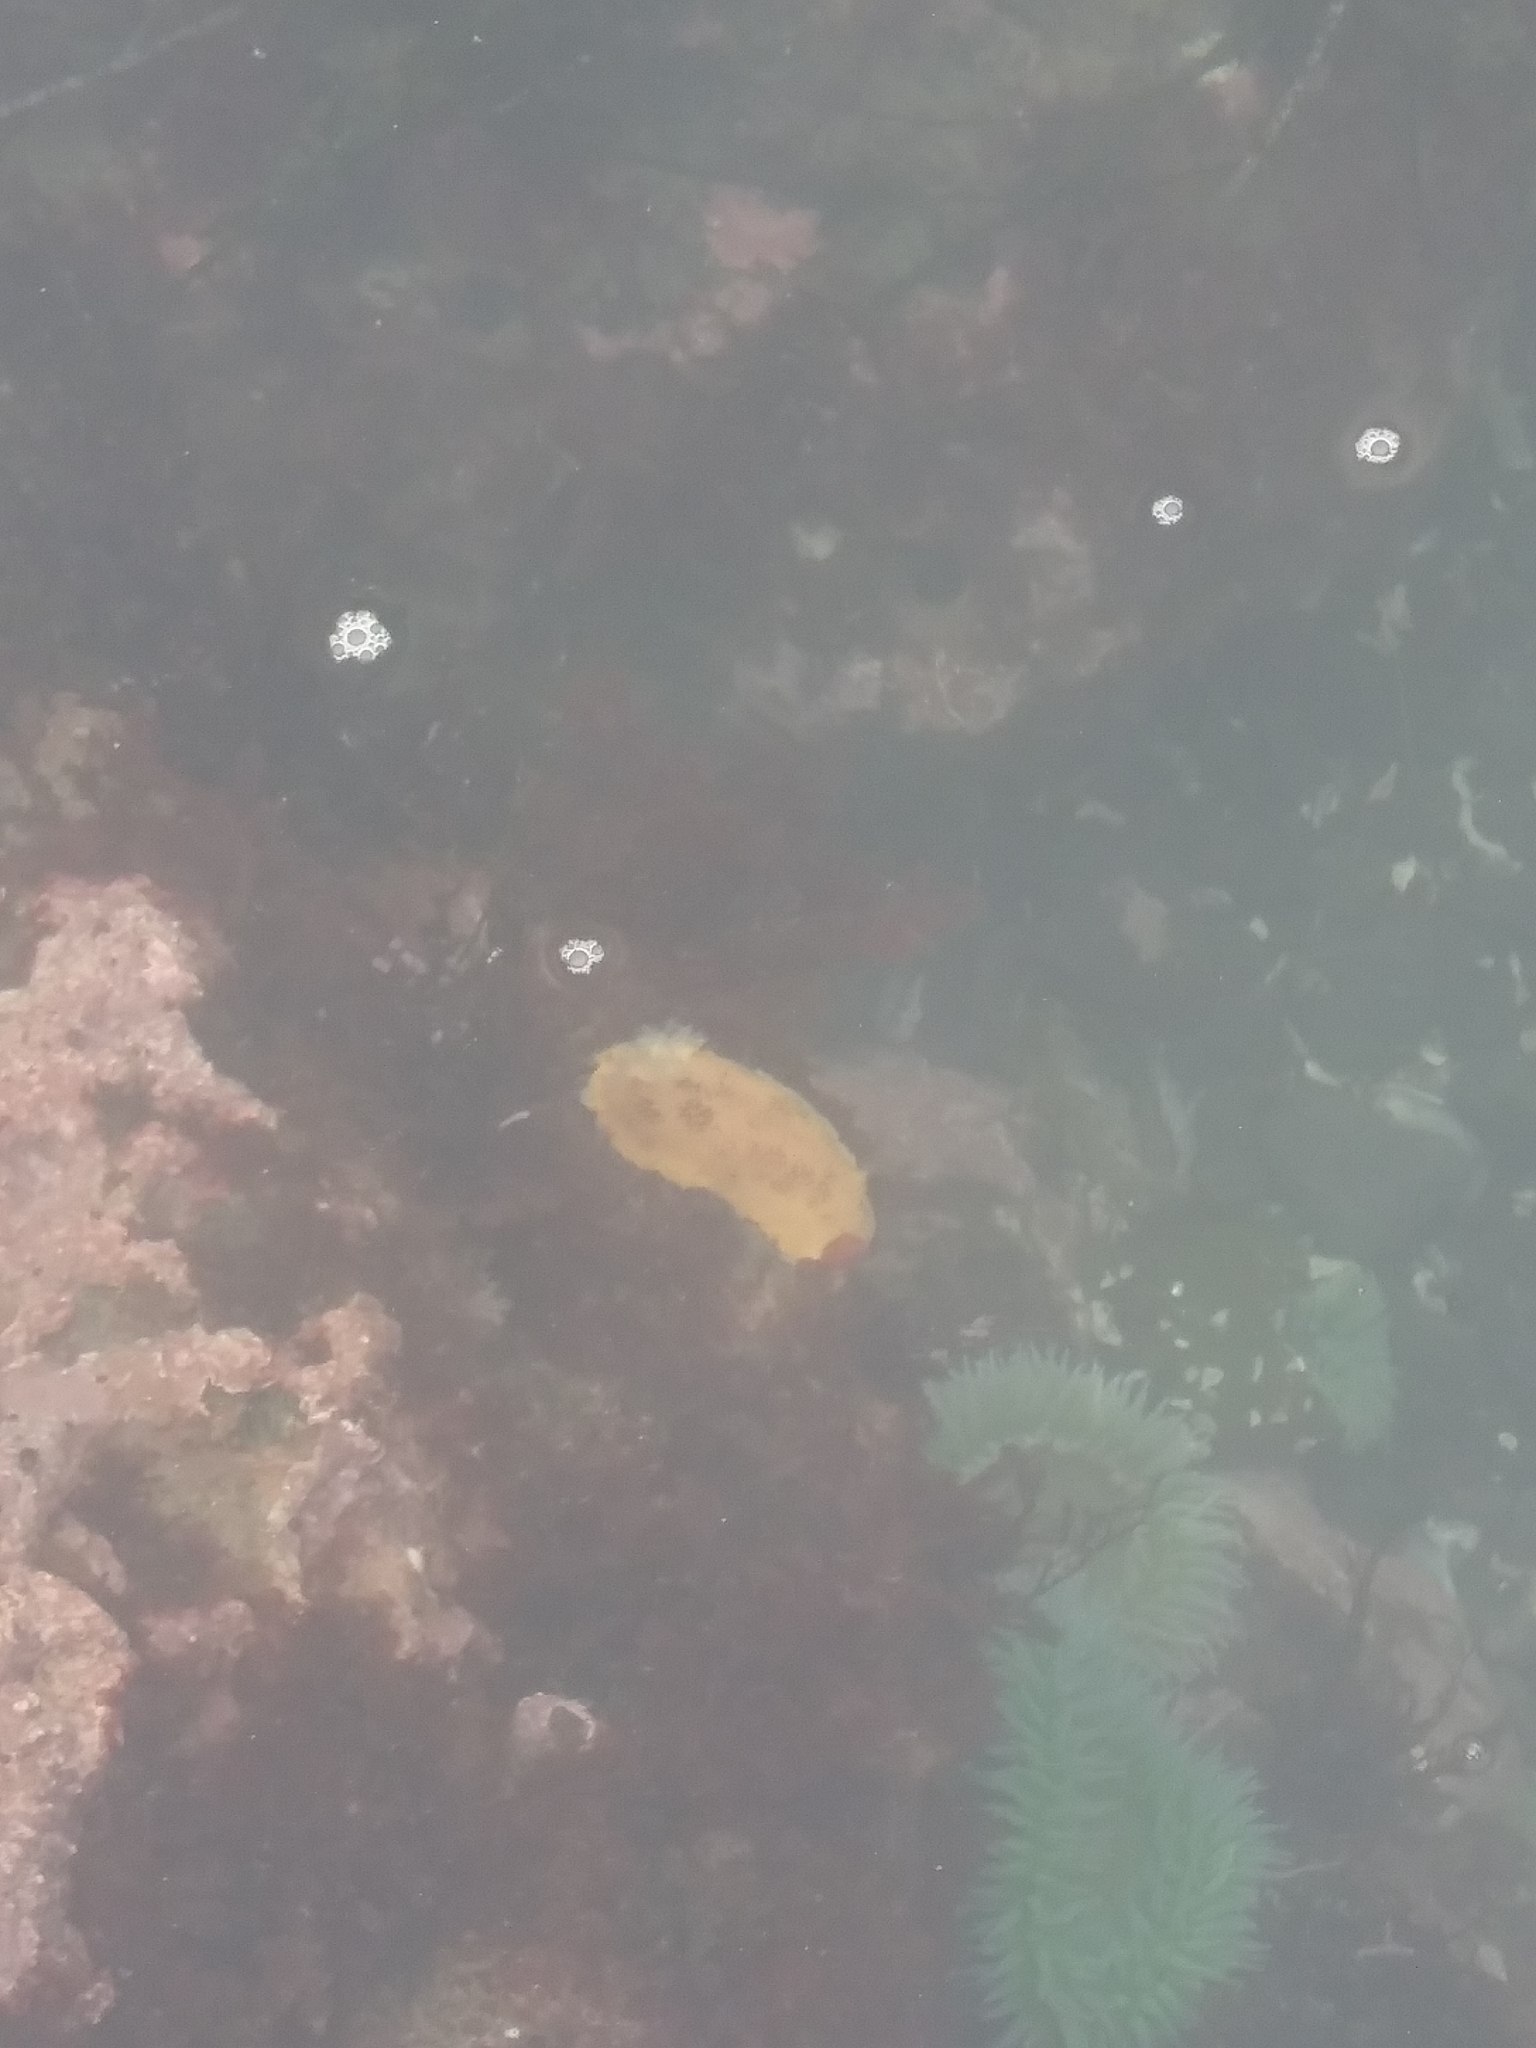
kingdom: Animalia
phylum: Mollusca
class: Gastropoda
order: Nudibranchia
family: Discodorididae
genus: Peltodoris
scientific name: Peltodoris nobilis
